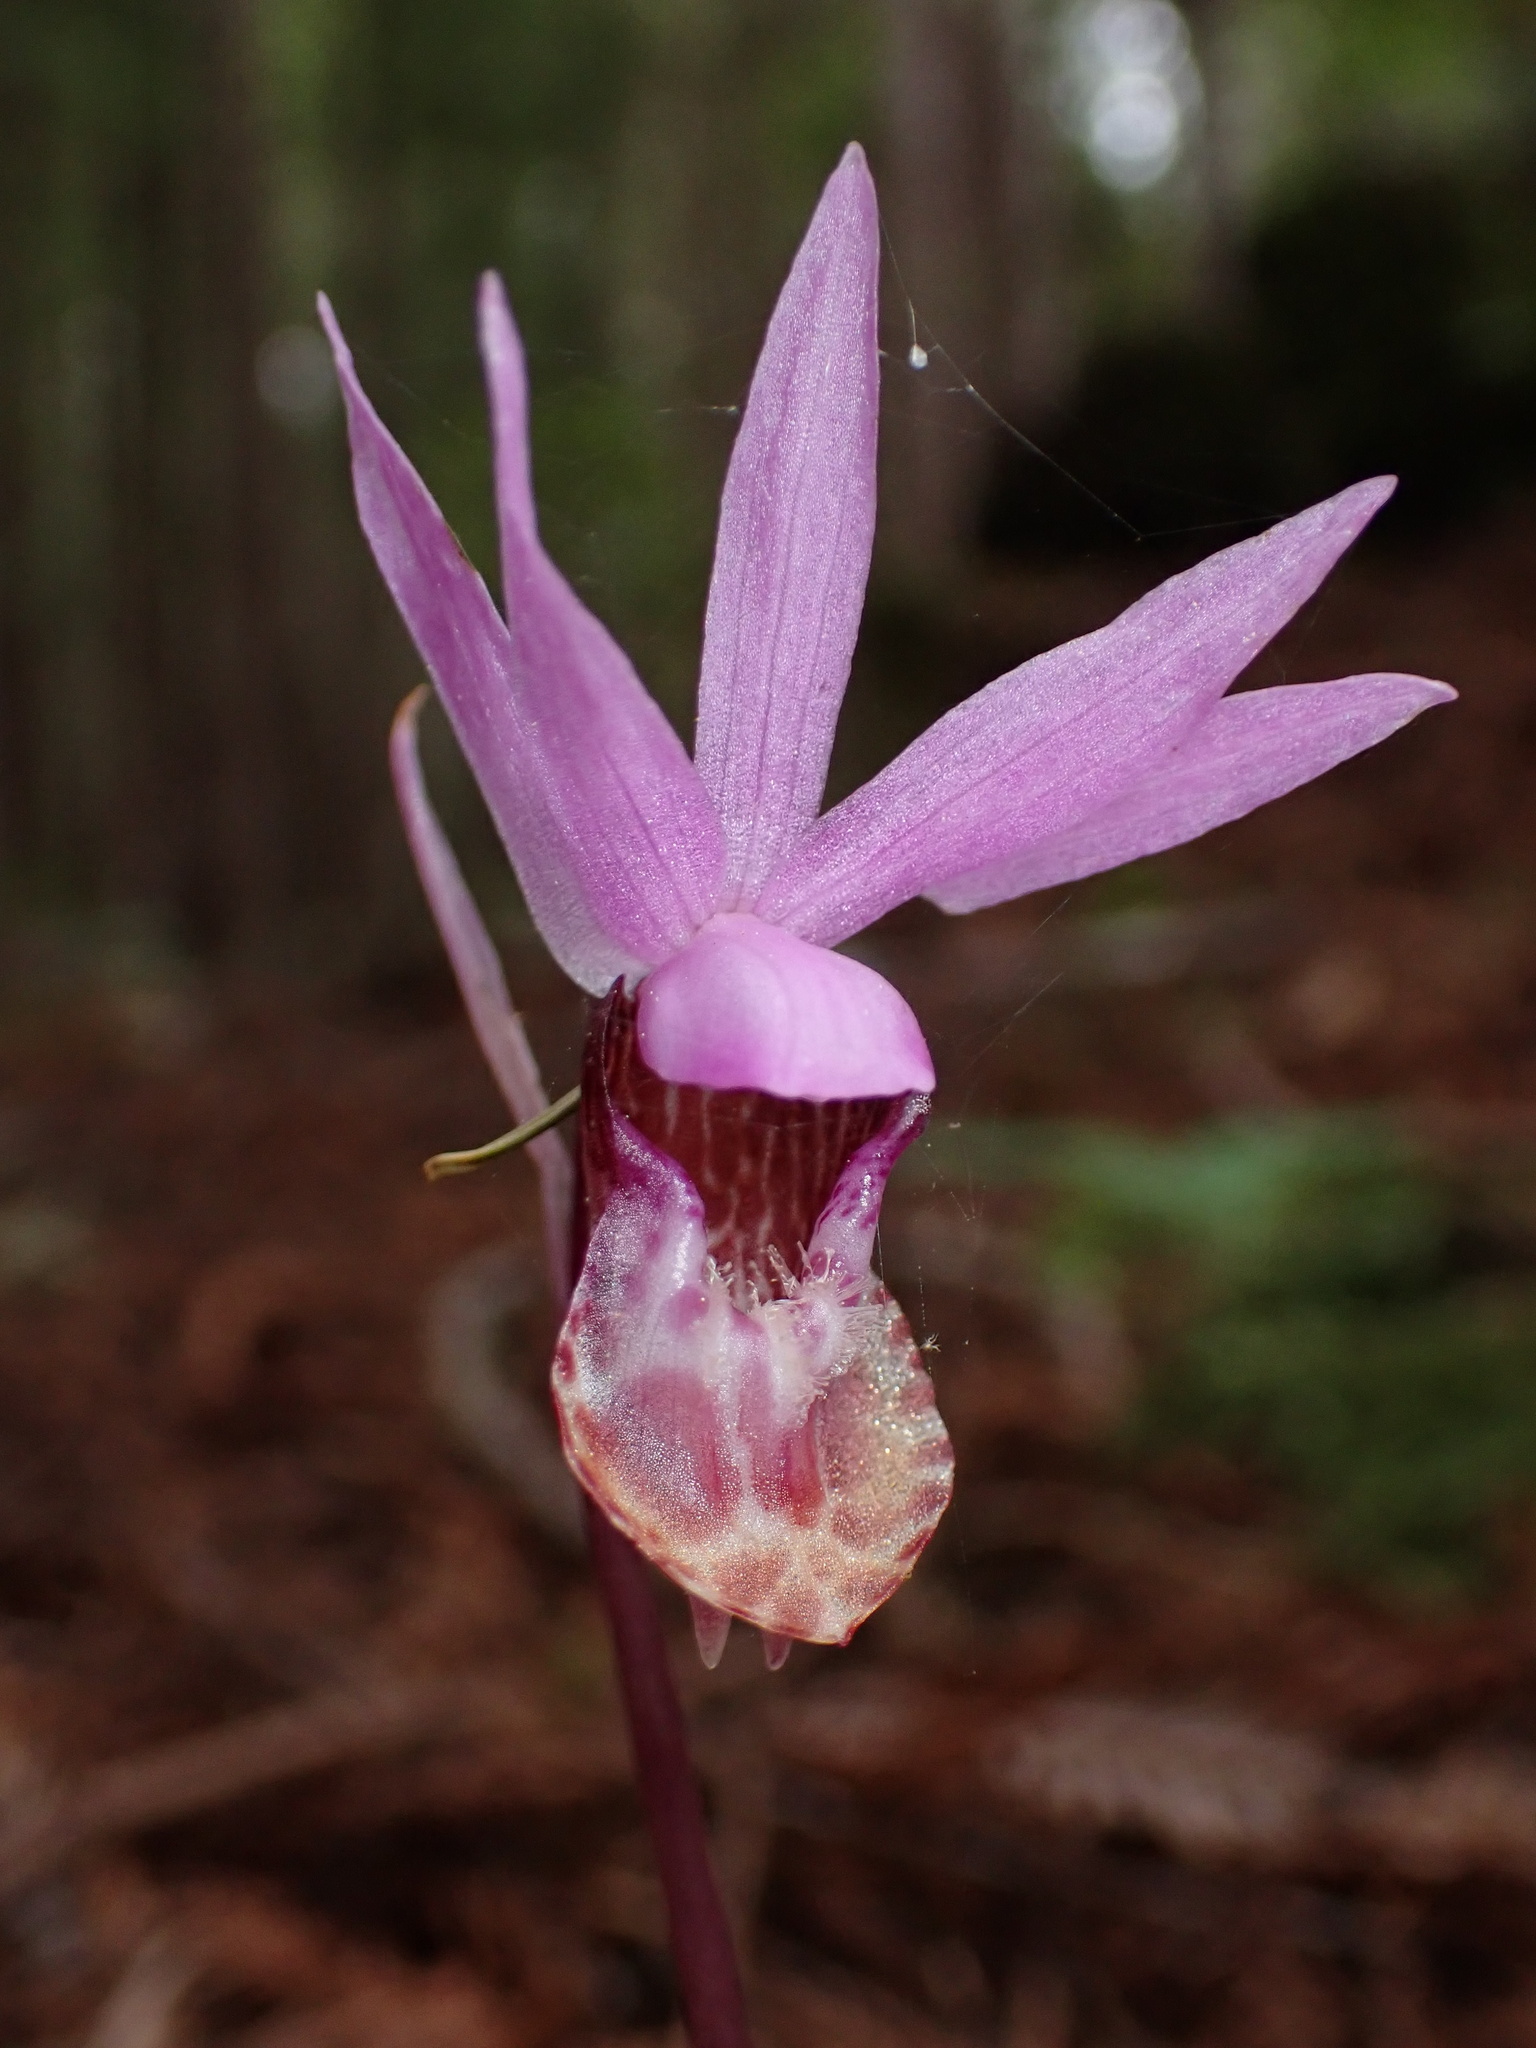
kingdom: Plantae
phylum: Tracheophyta
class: Liliopsida
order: Asparagales
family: Orchidaceae
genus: Calypso
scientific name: Calypso bulbosa
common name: Calypso
